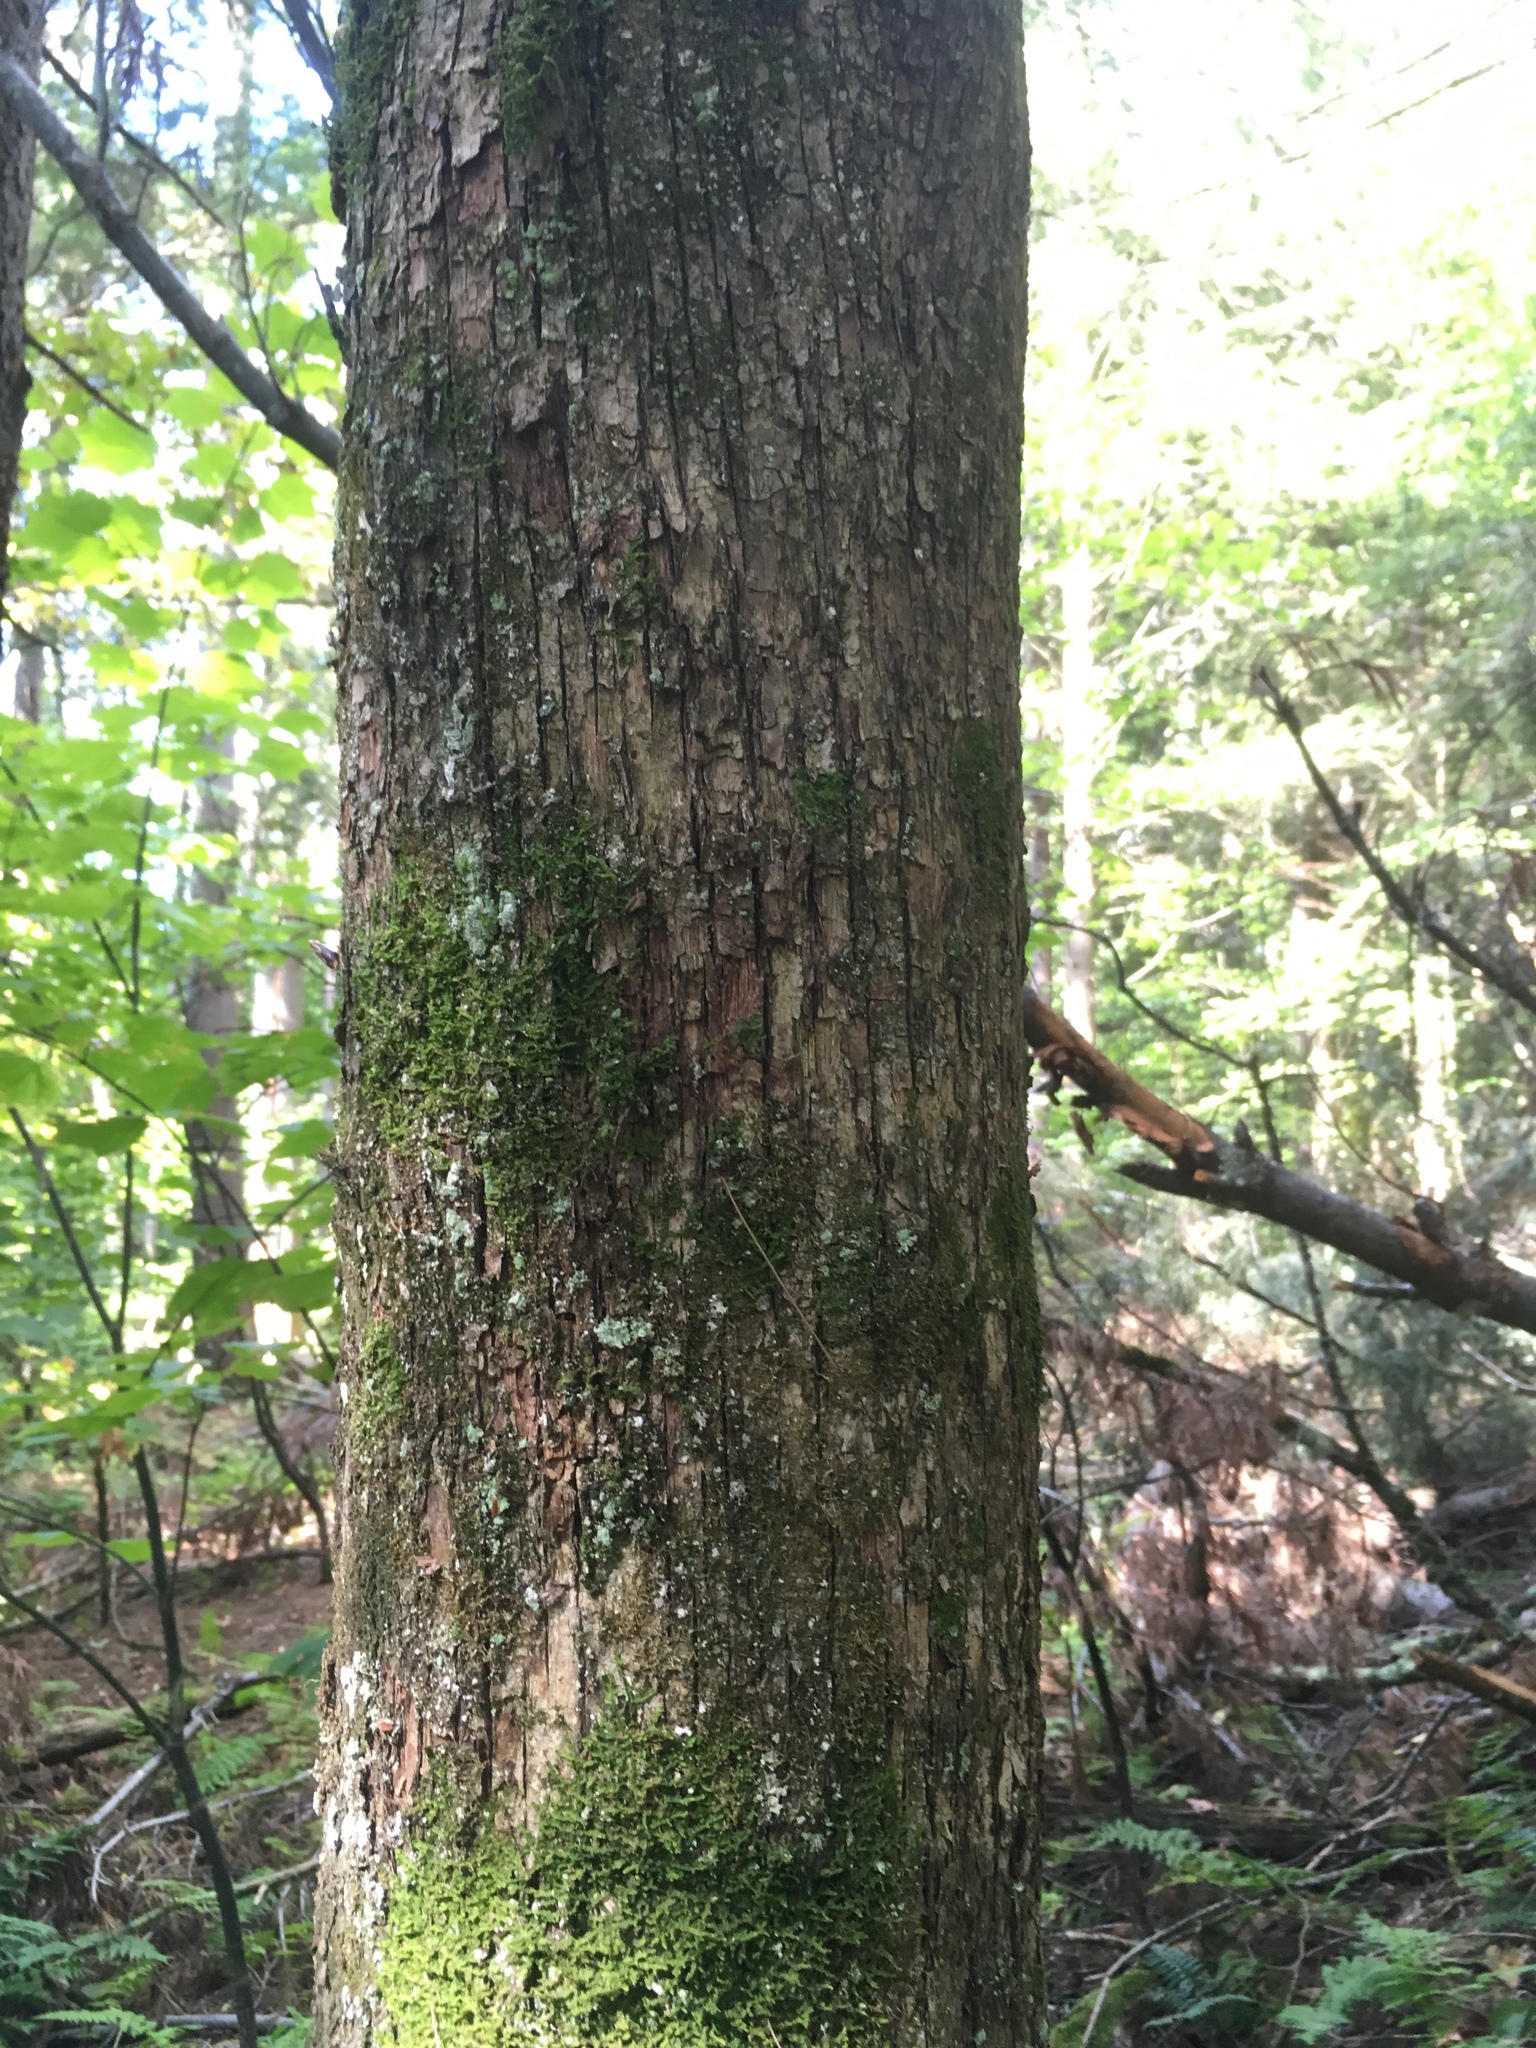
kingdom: Plantae
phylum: Tracheophyta
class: Magnoliopsida
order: Fagales
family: Betulaceae
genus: Ostrya
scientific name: Ostrya virginiana
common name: Ironwood
